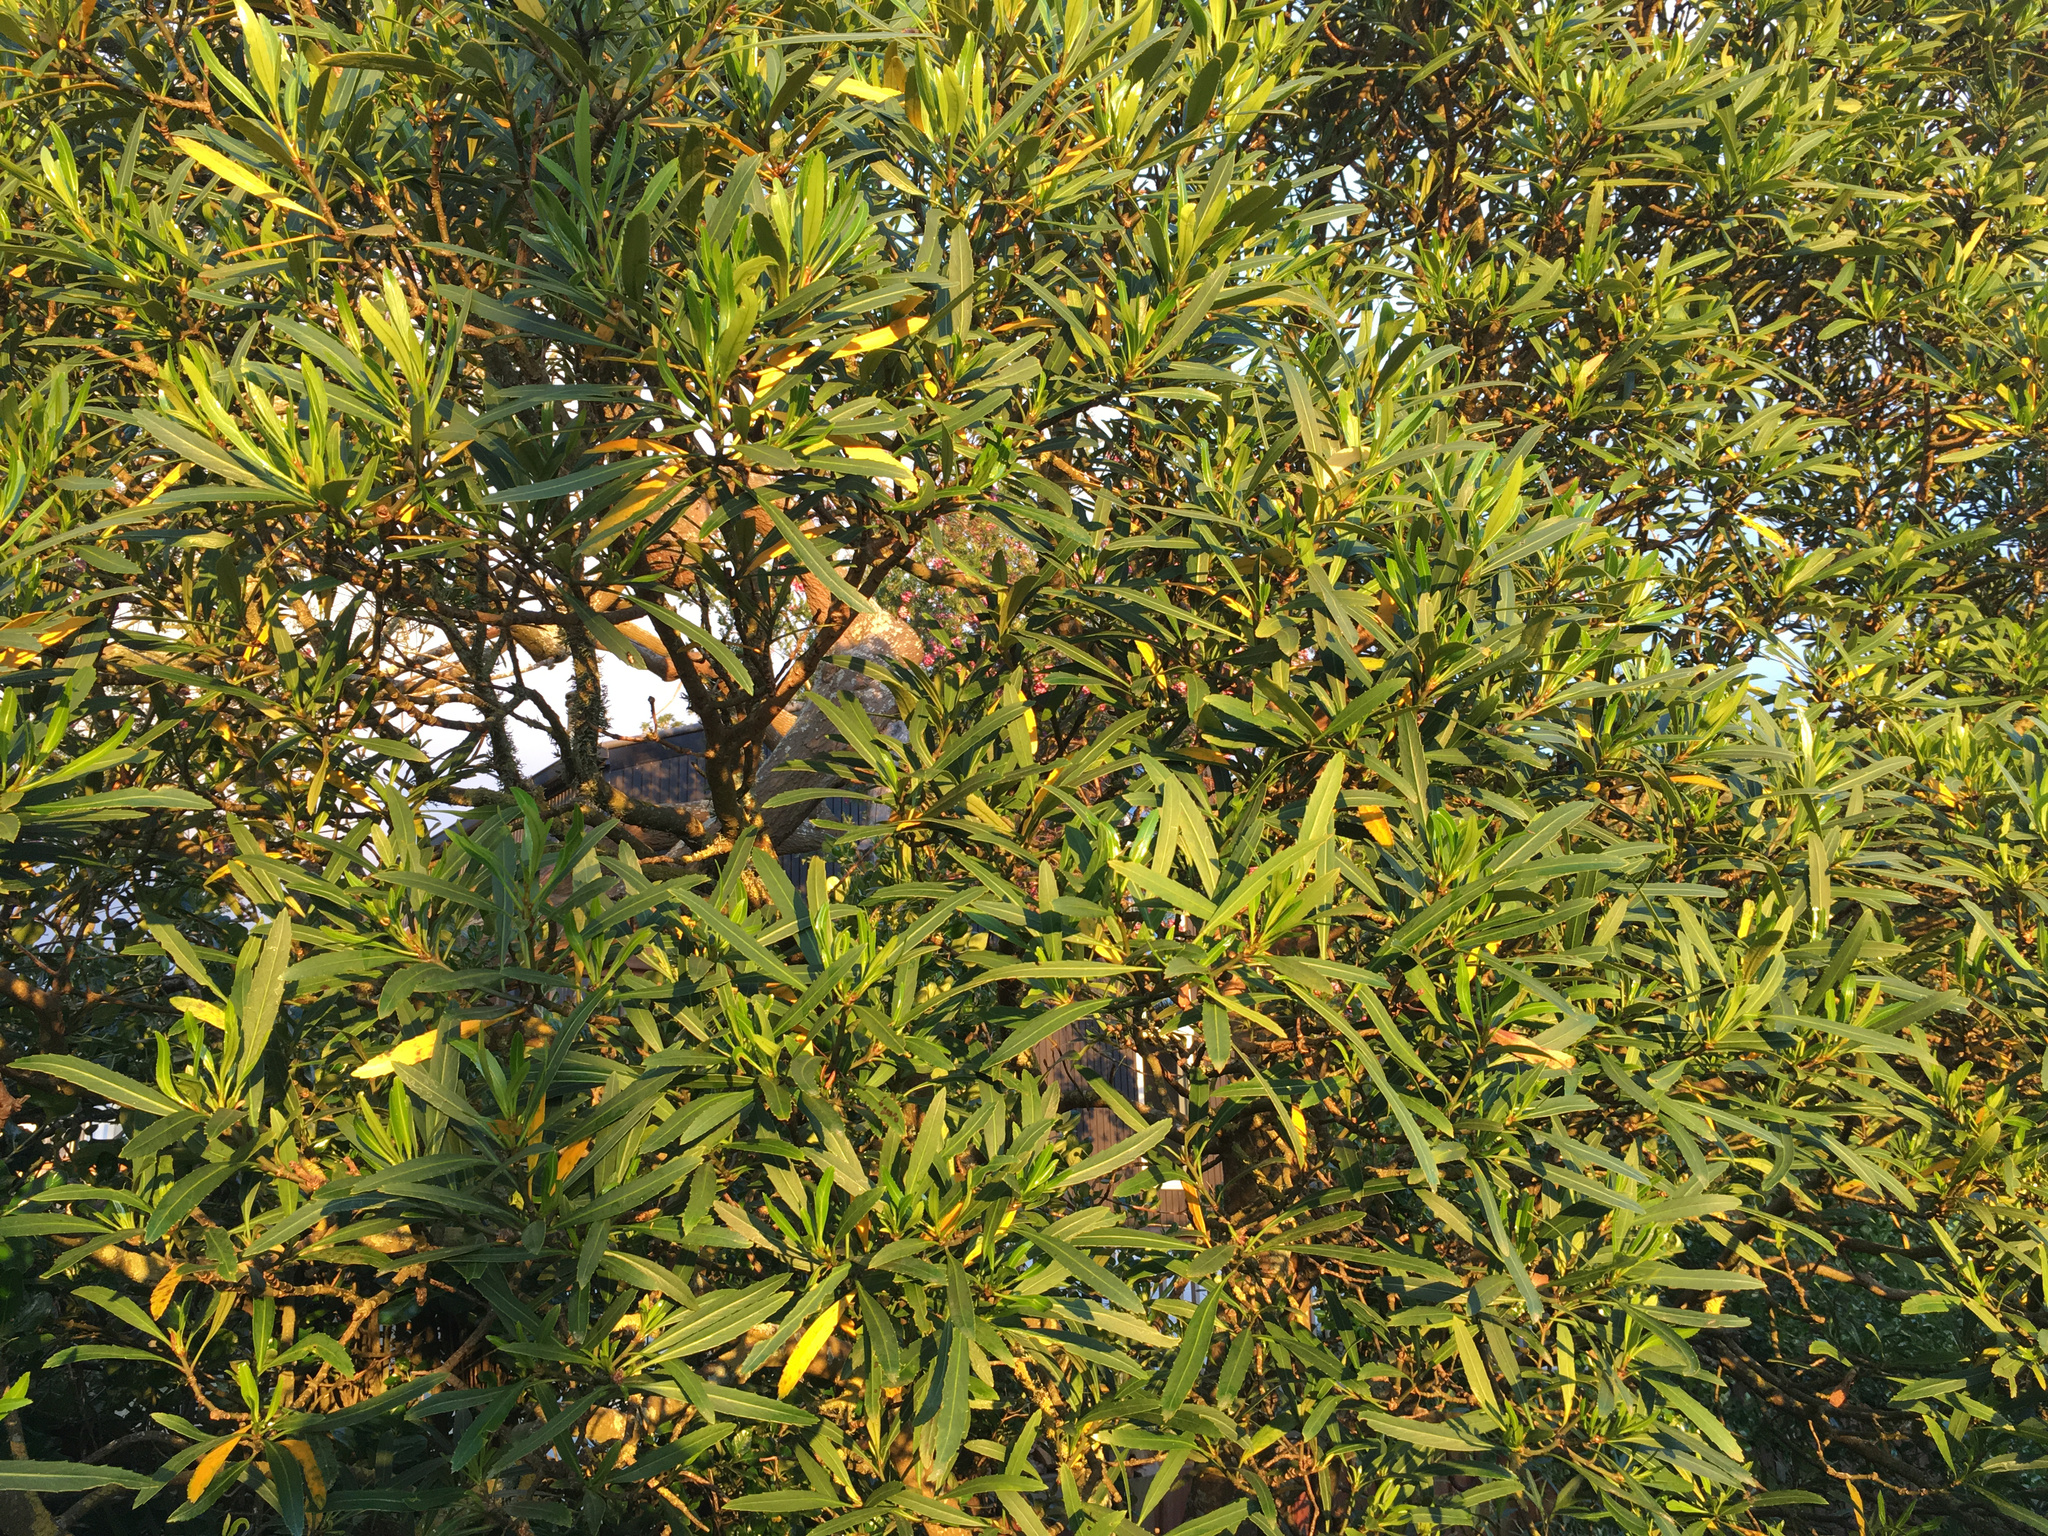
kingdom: Plantae
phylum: Tracheophyta
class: Magnoliopsida
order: Apiales
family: Araliaceae
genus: Pseudopanax
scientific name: Pseudopanax crassifolius
